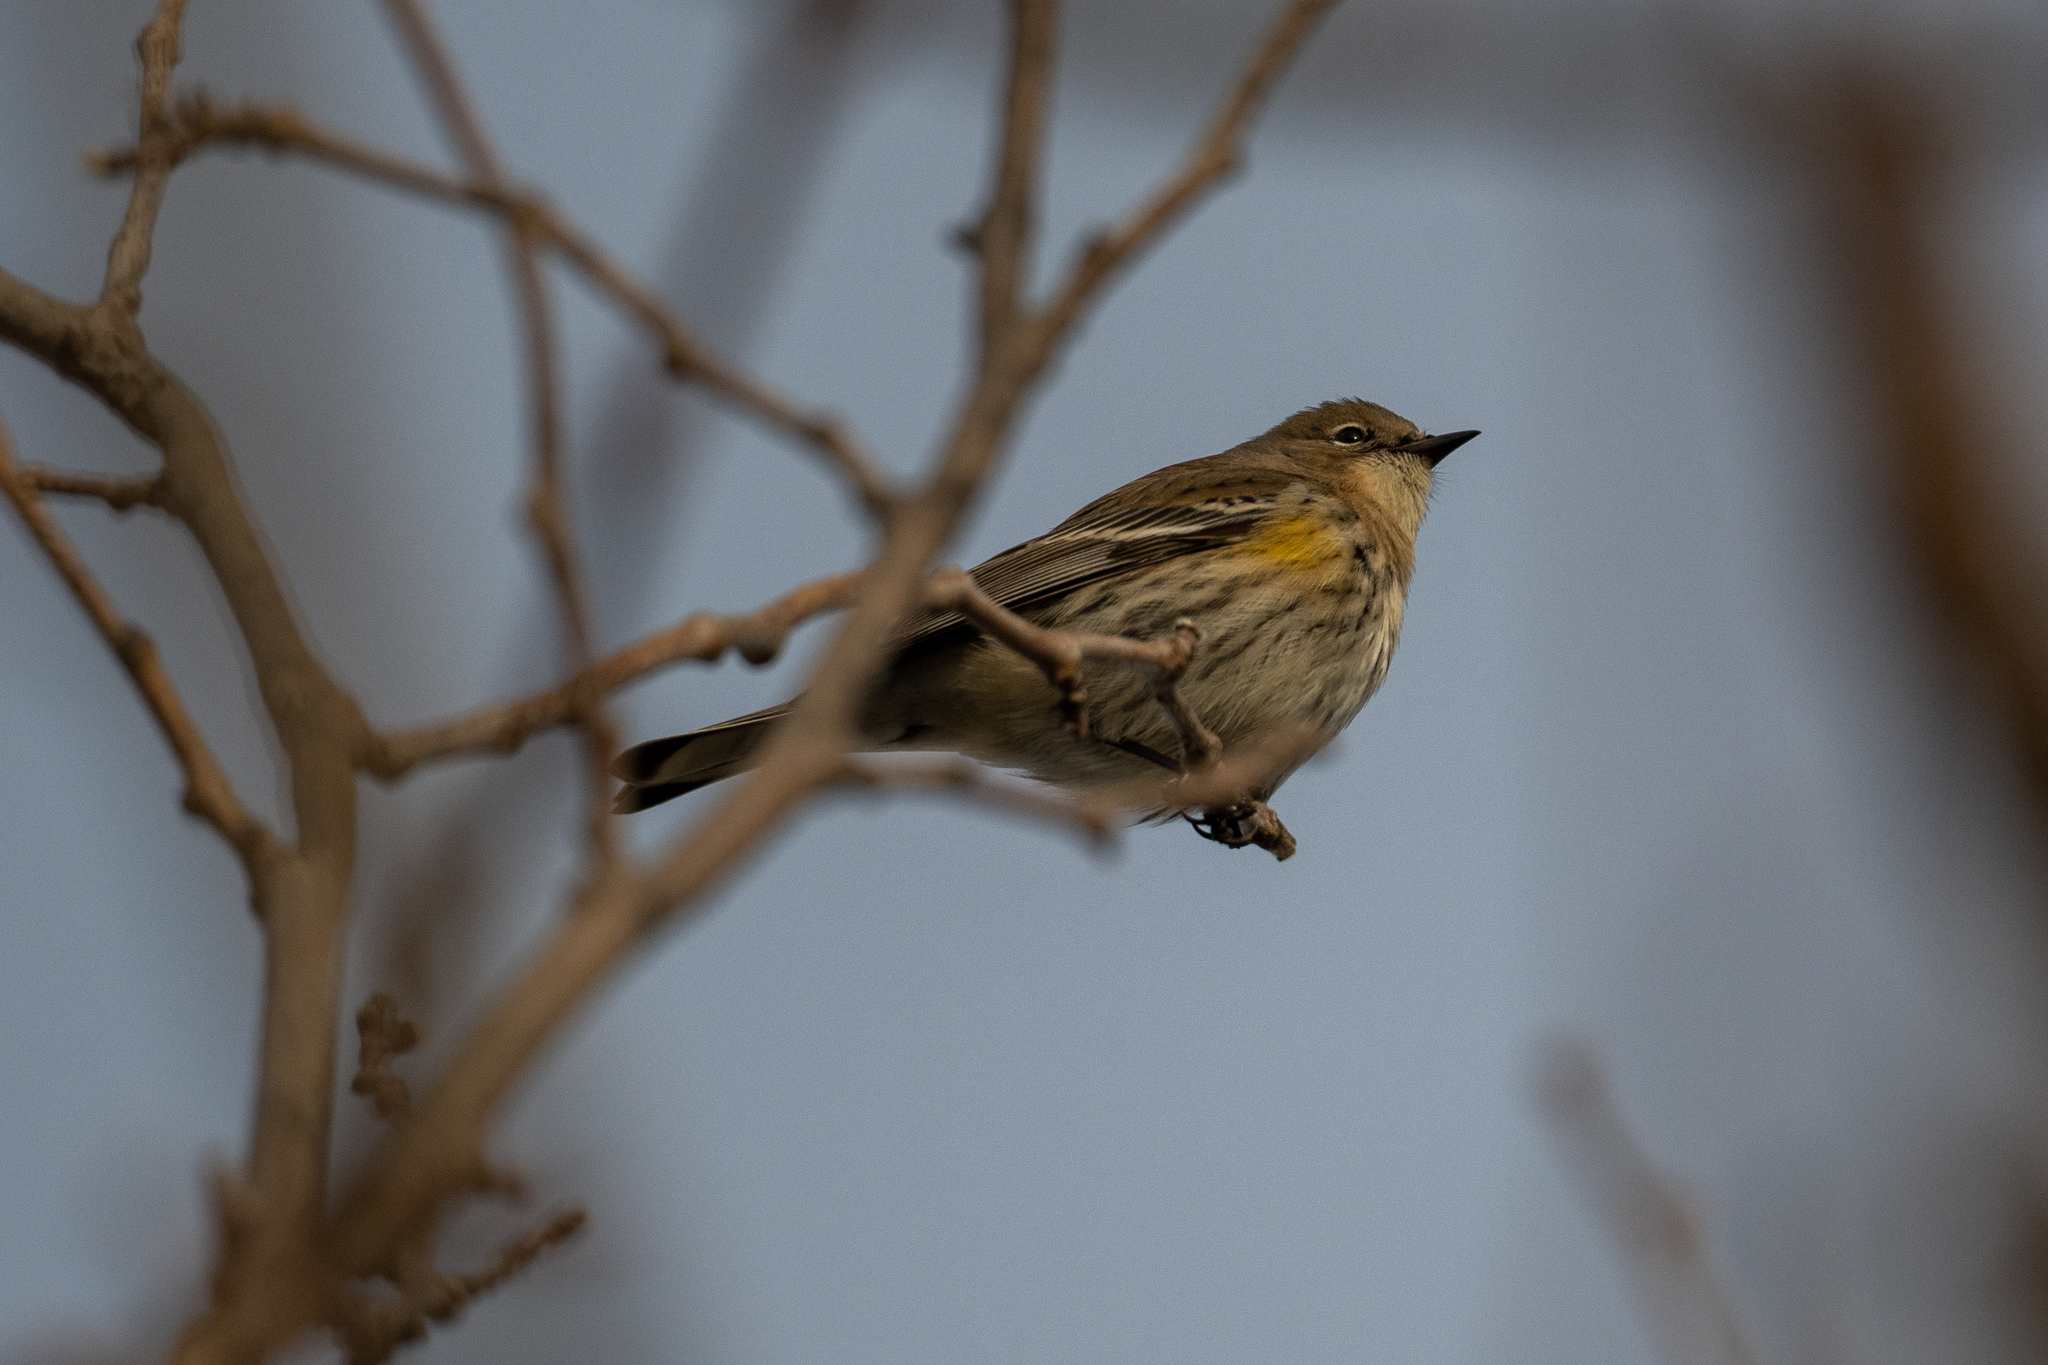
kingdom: Animalia
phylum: Chordata
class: Aves
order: Passeriformes
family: Parulidae
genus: Setophaga
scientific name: Setophaga coronata
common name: Myrtle warbler
